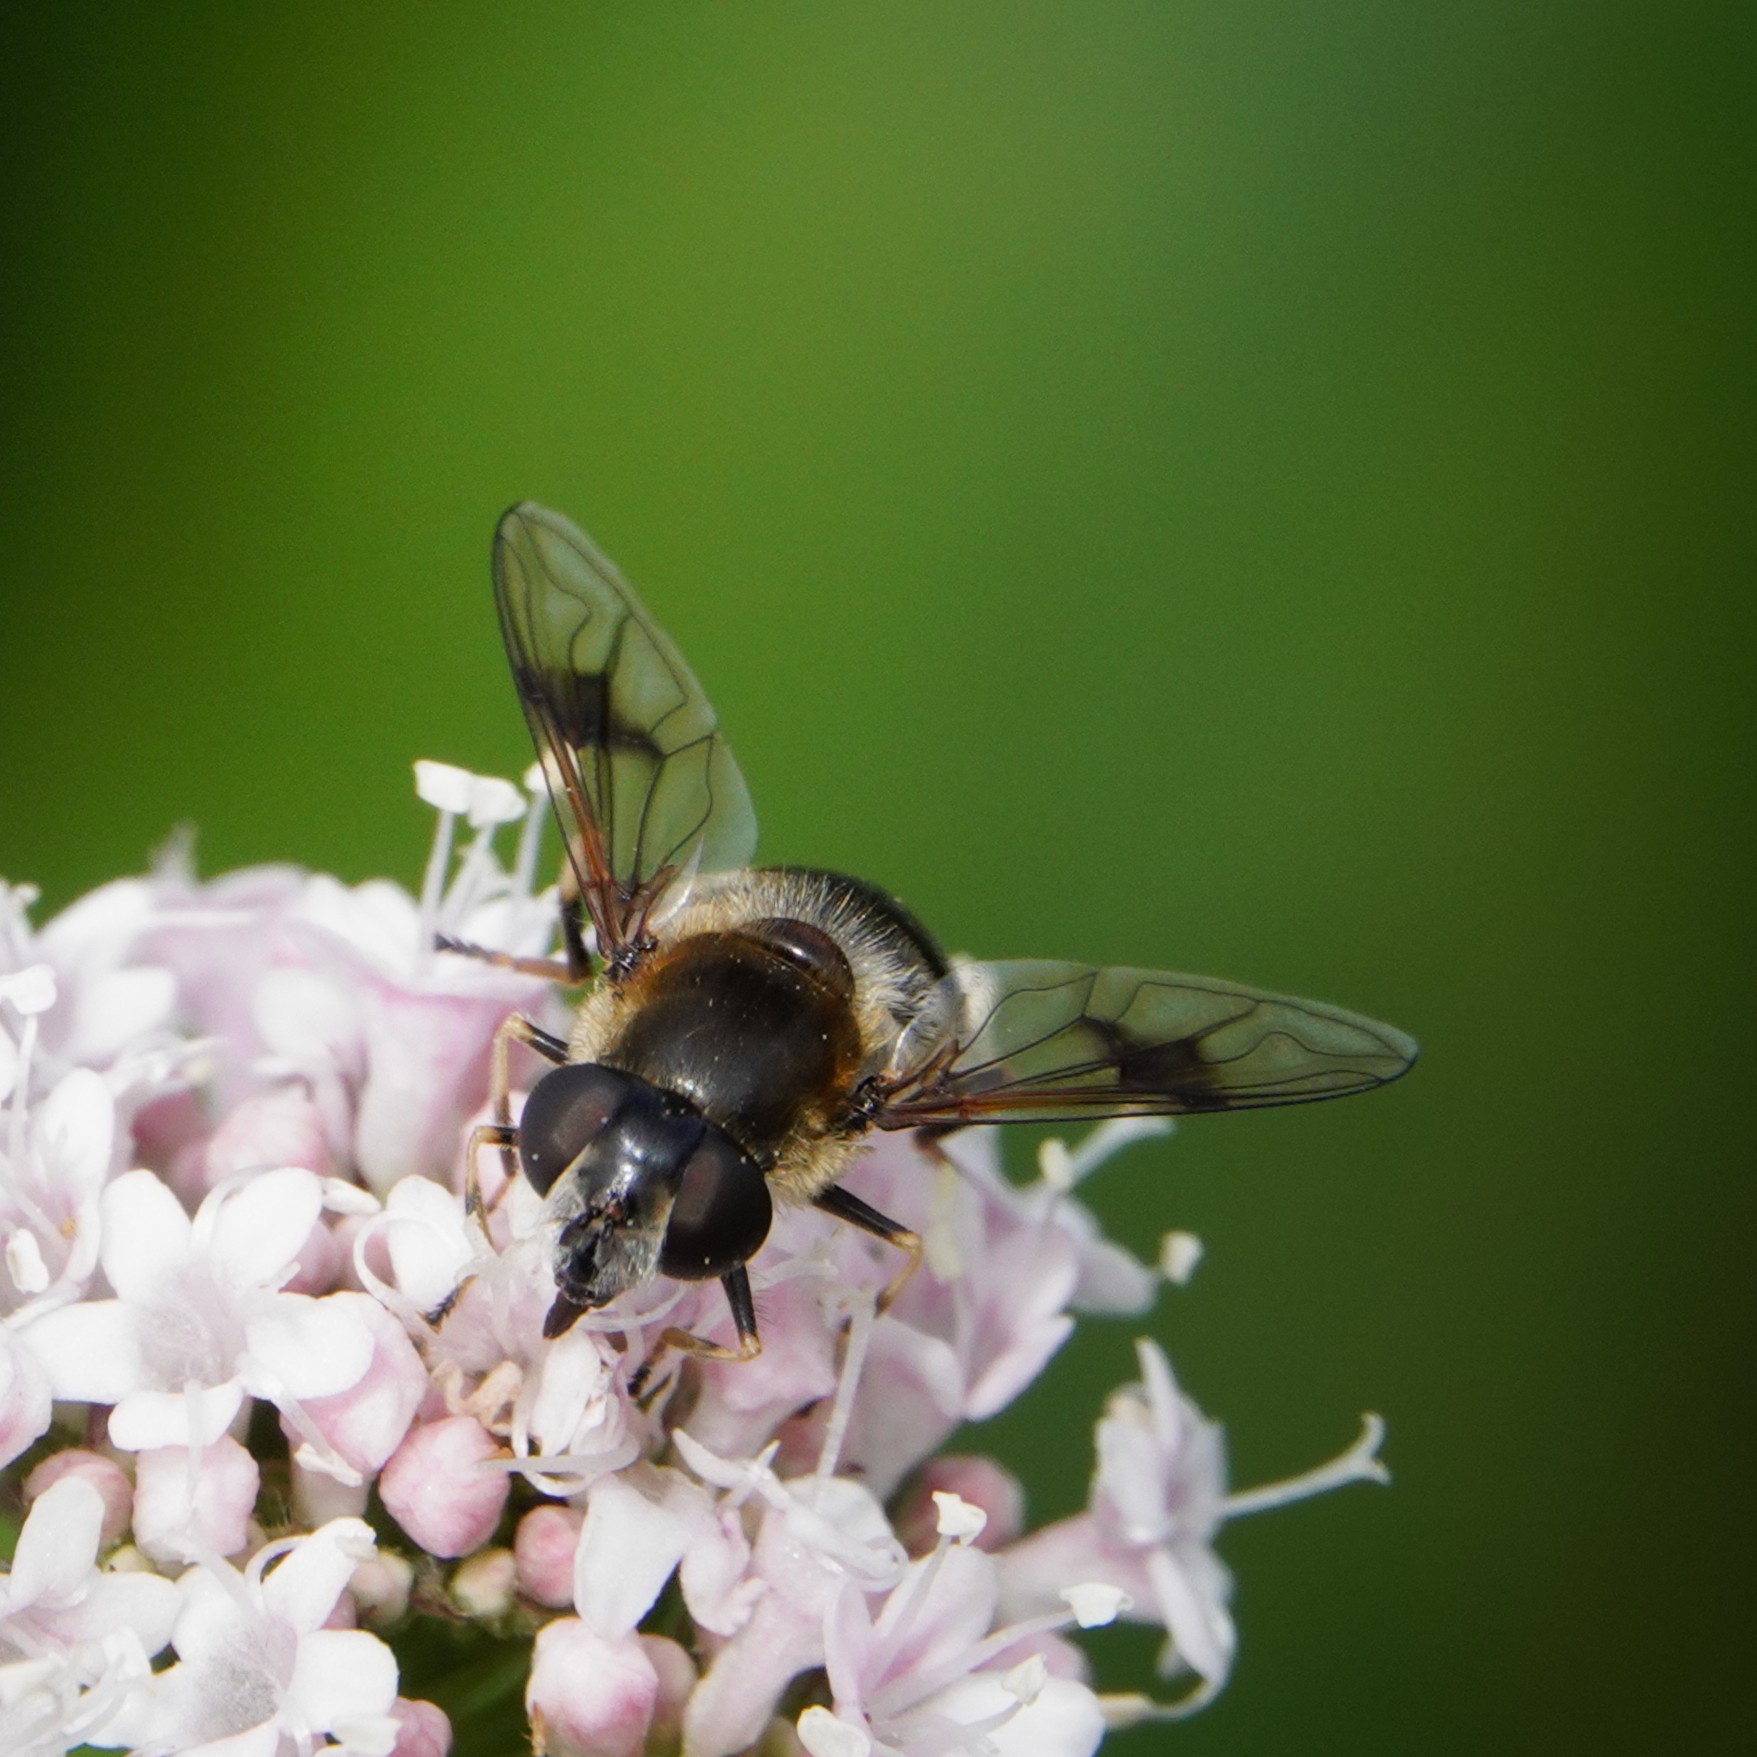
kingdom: Animalia
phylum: Arthropoda
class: Insecta
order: Diptera
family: Syrphidae
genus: Eristalis
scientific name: Eristalis rupium
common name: Hover fly
